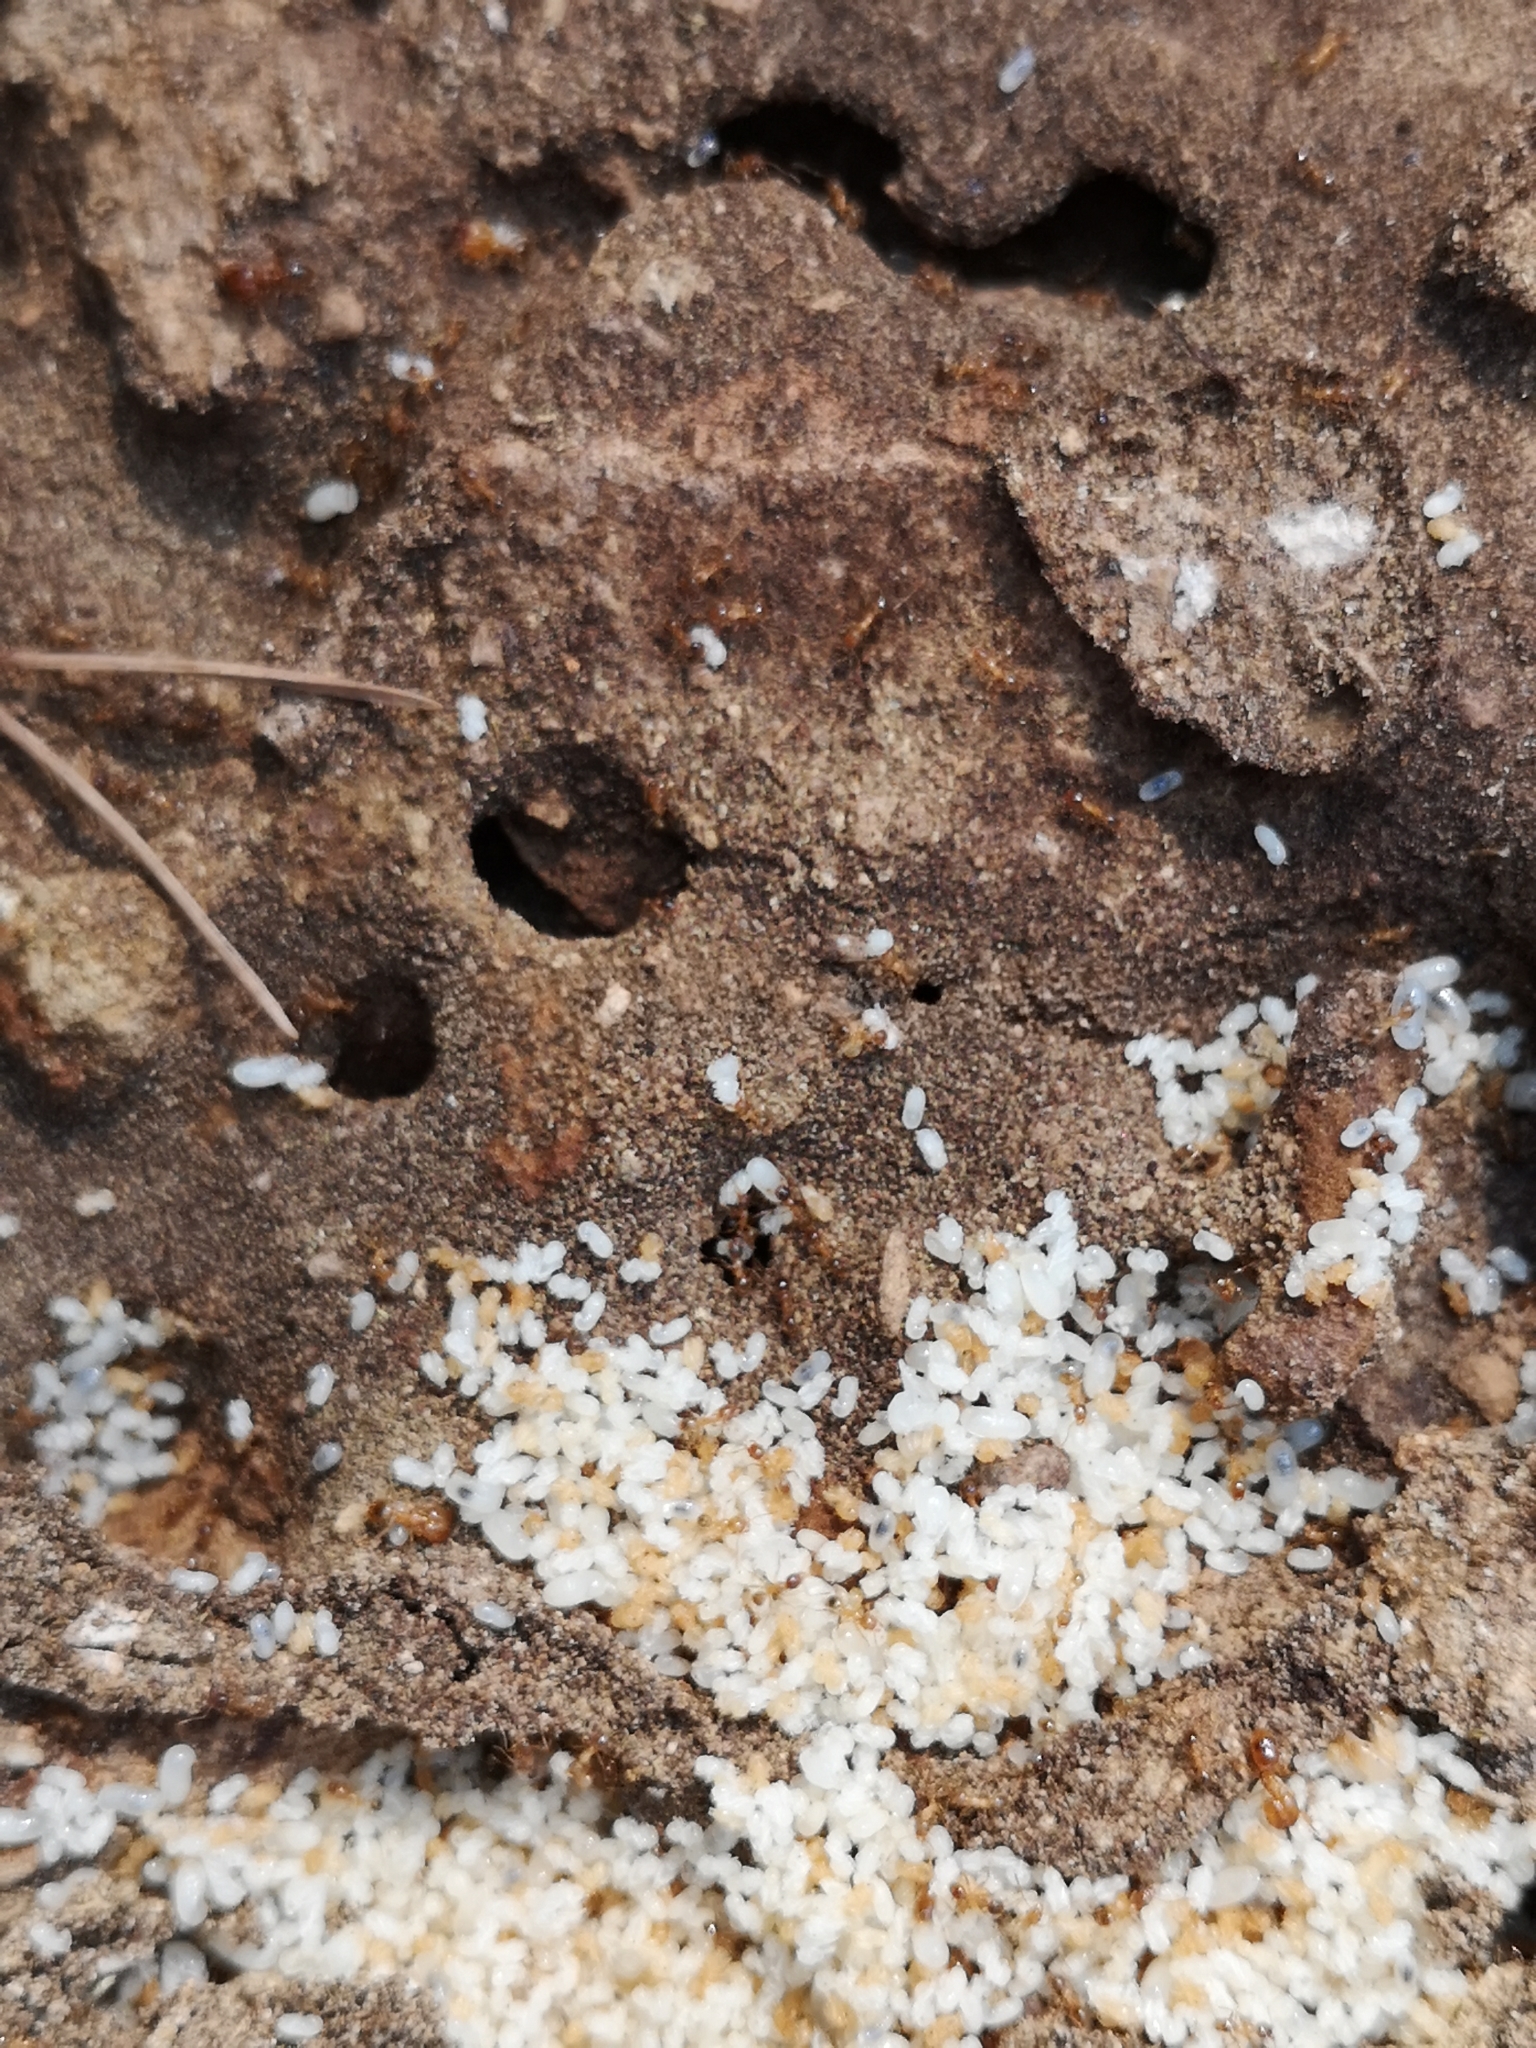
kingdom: Animalia
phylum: Arthropoda
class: Insecta
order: Hymenoptera
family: Formicidae
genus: Pheidole
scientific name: Pheidole pallidula
